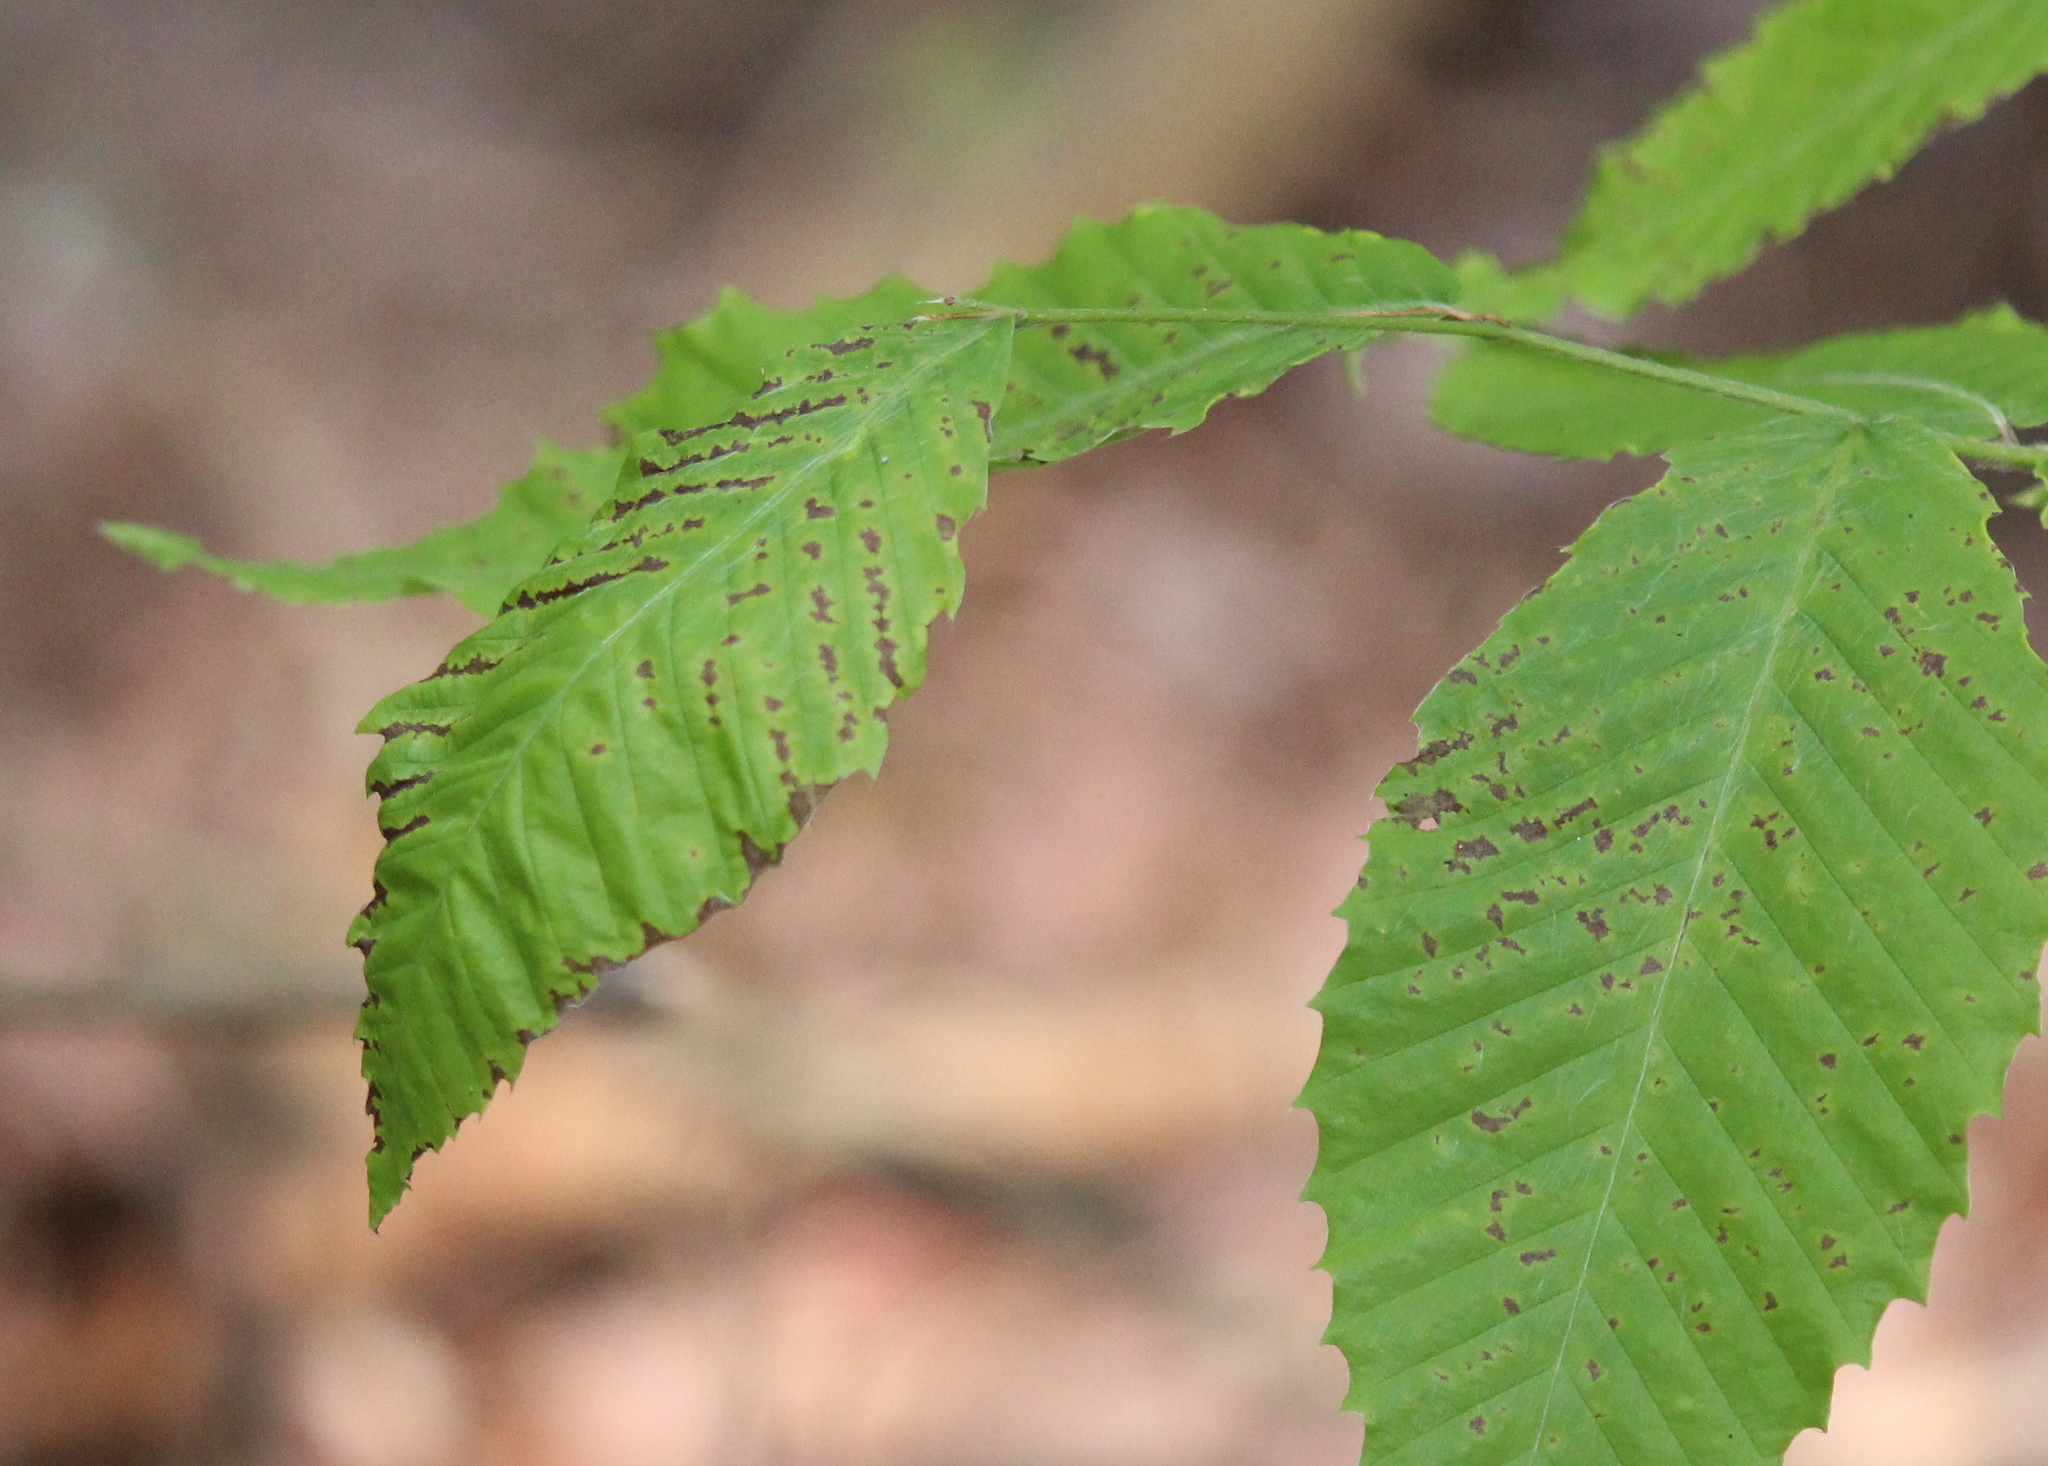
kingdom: Plantae
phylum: Tracheophyta
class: Magnoliopsida
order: Fagales
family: Fagaceae
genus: Fagus
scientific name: Fagus grandifolia
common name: American beech
